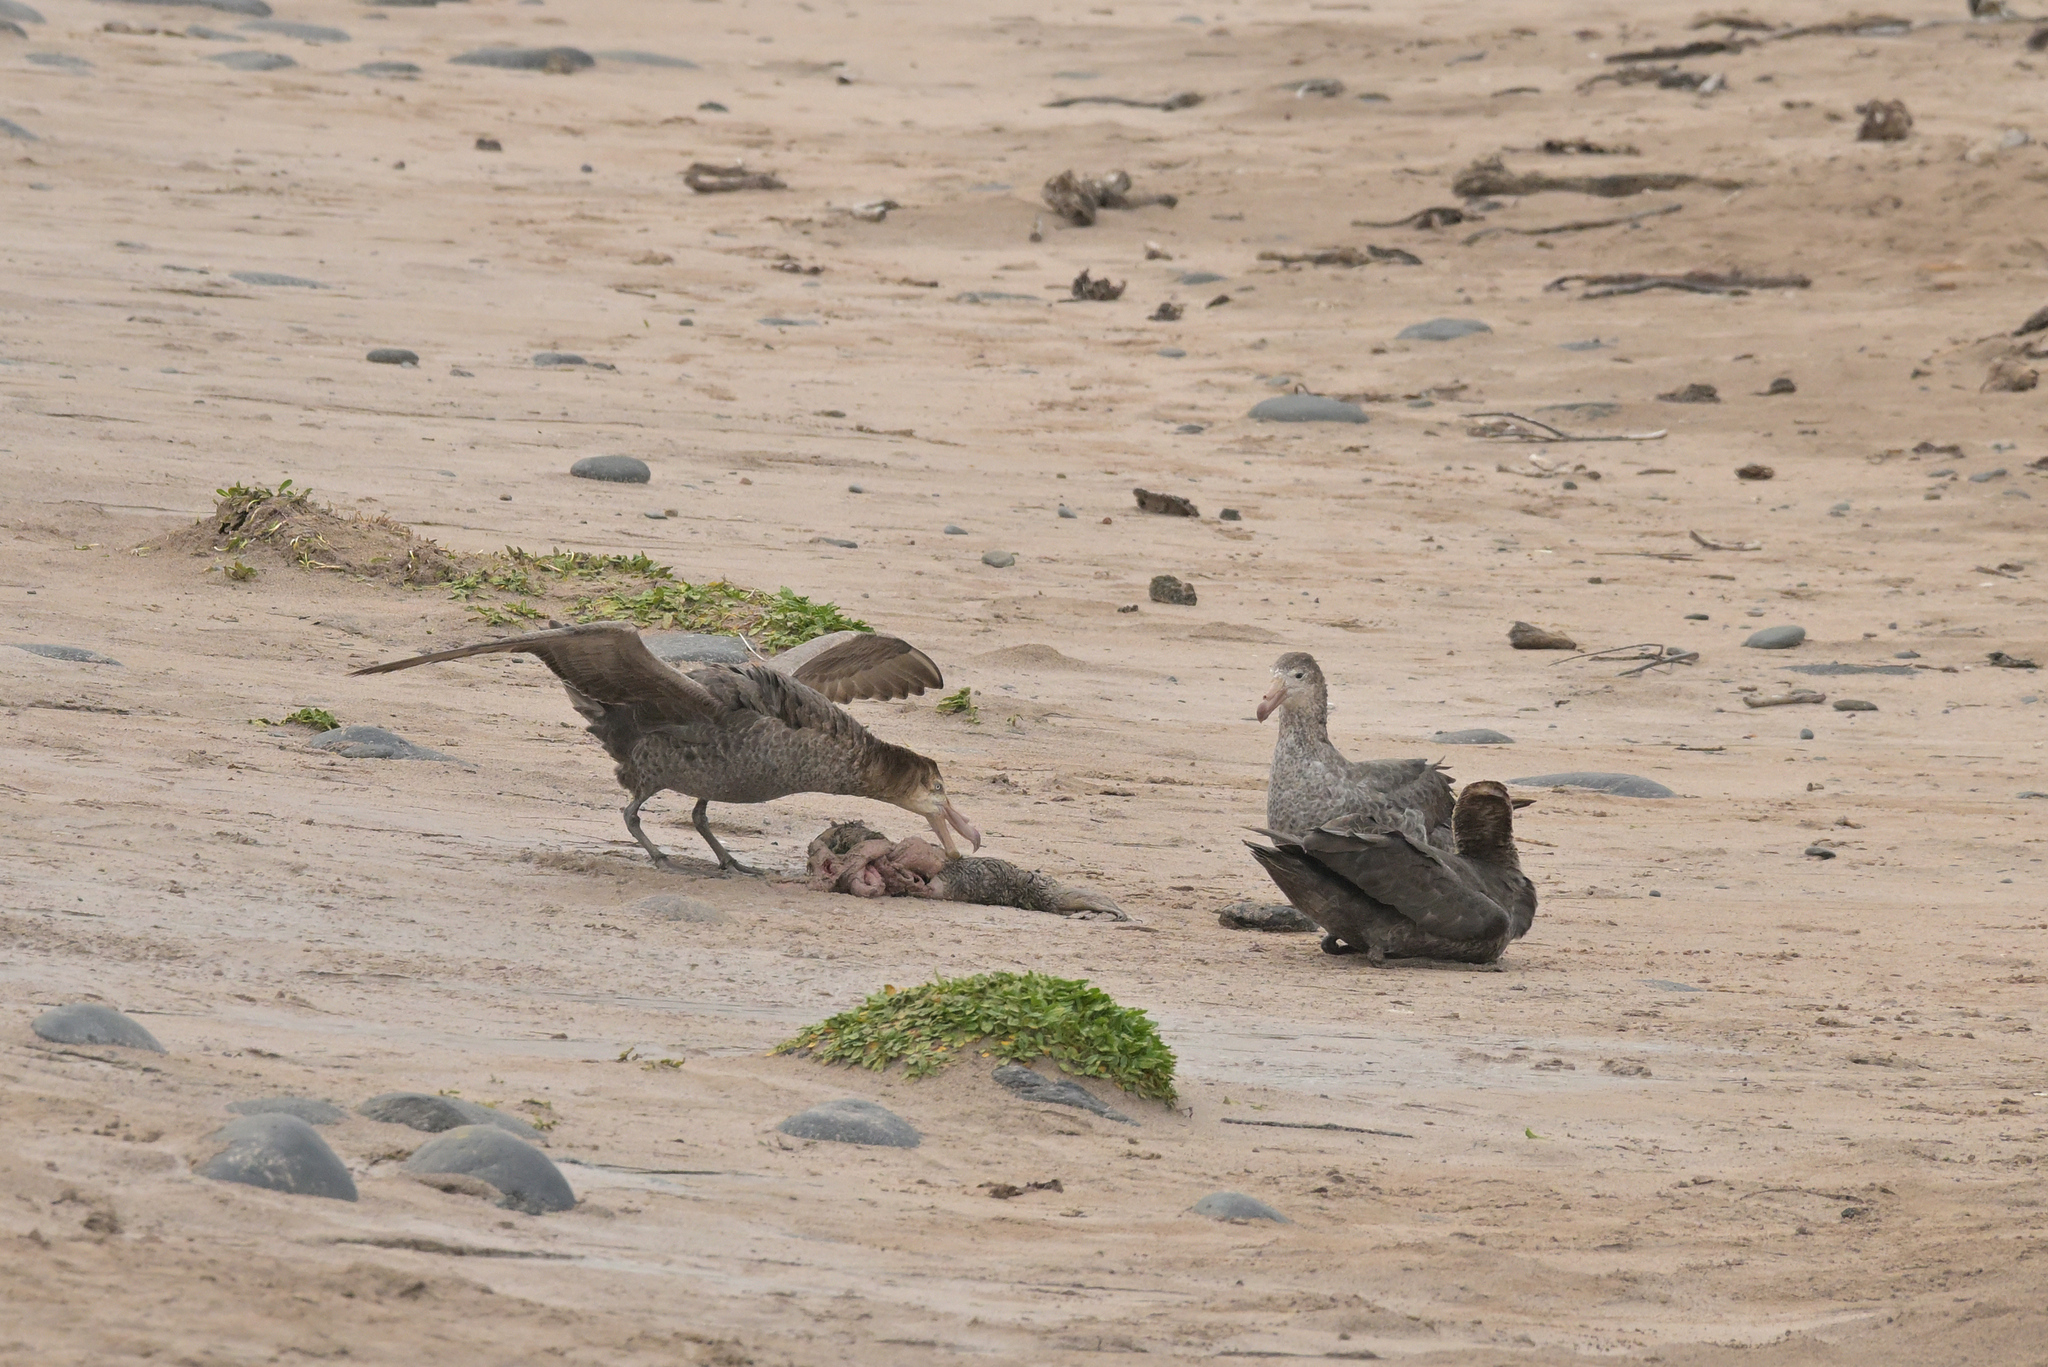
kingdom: Animalia
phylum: Chordata
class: Aves
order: Procellariiformes
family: Procellariidae
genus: Macronectes
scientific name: Macronectes halli
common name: Northern giant petrel
